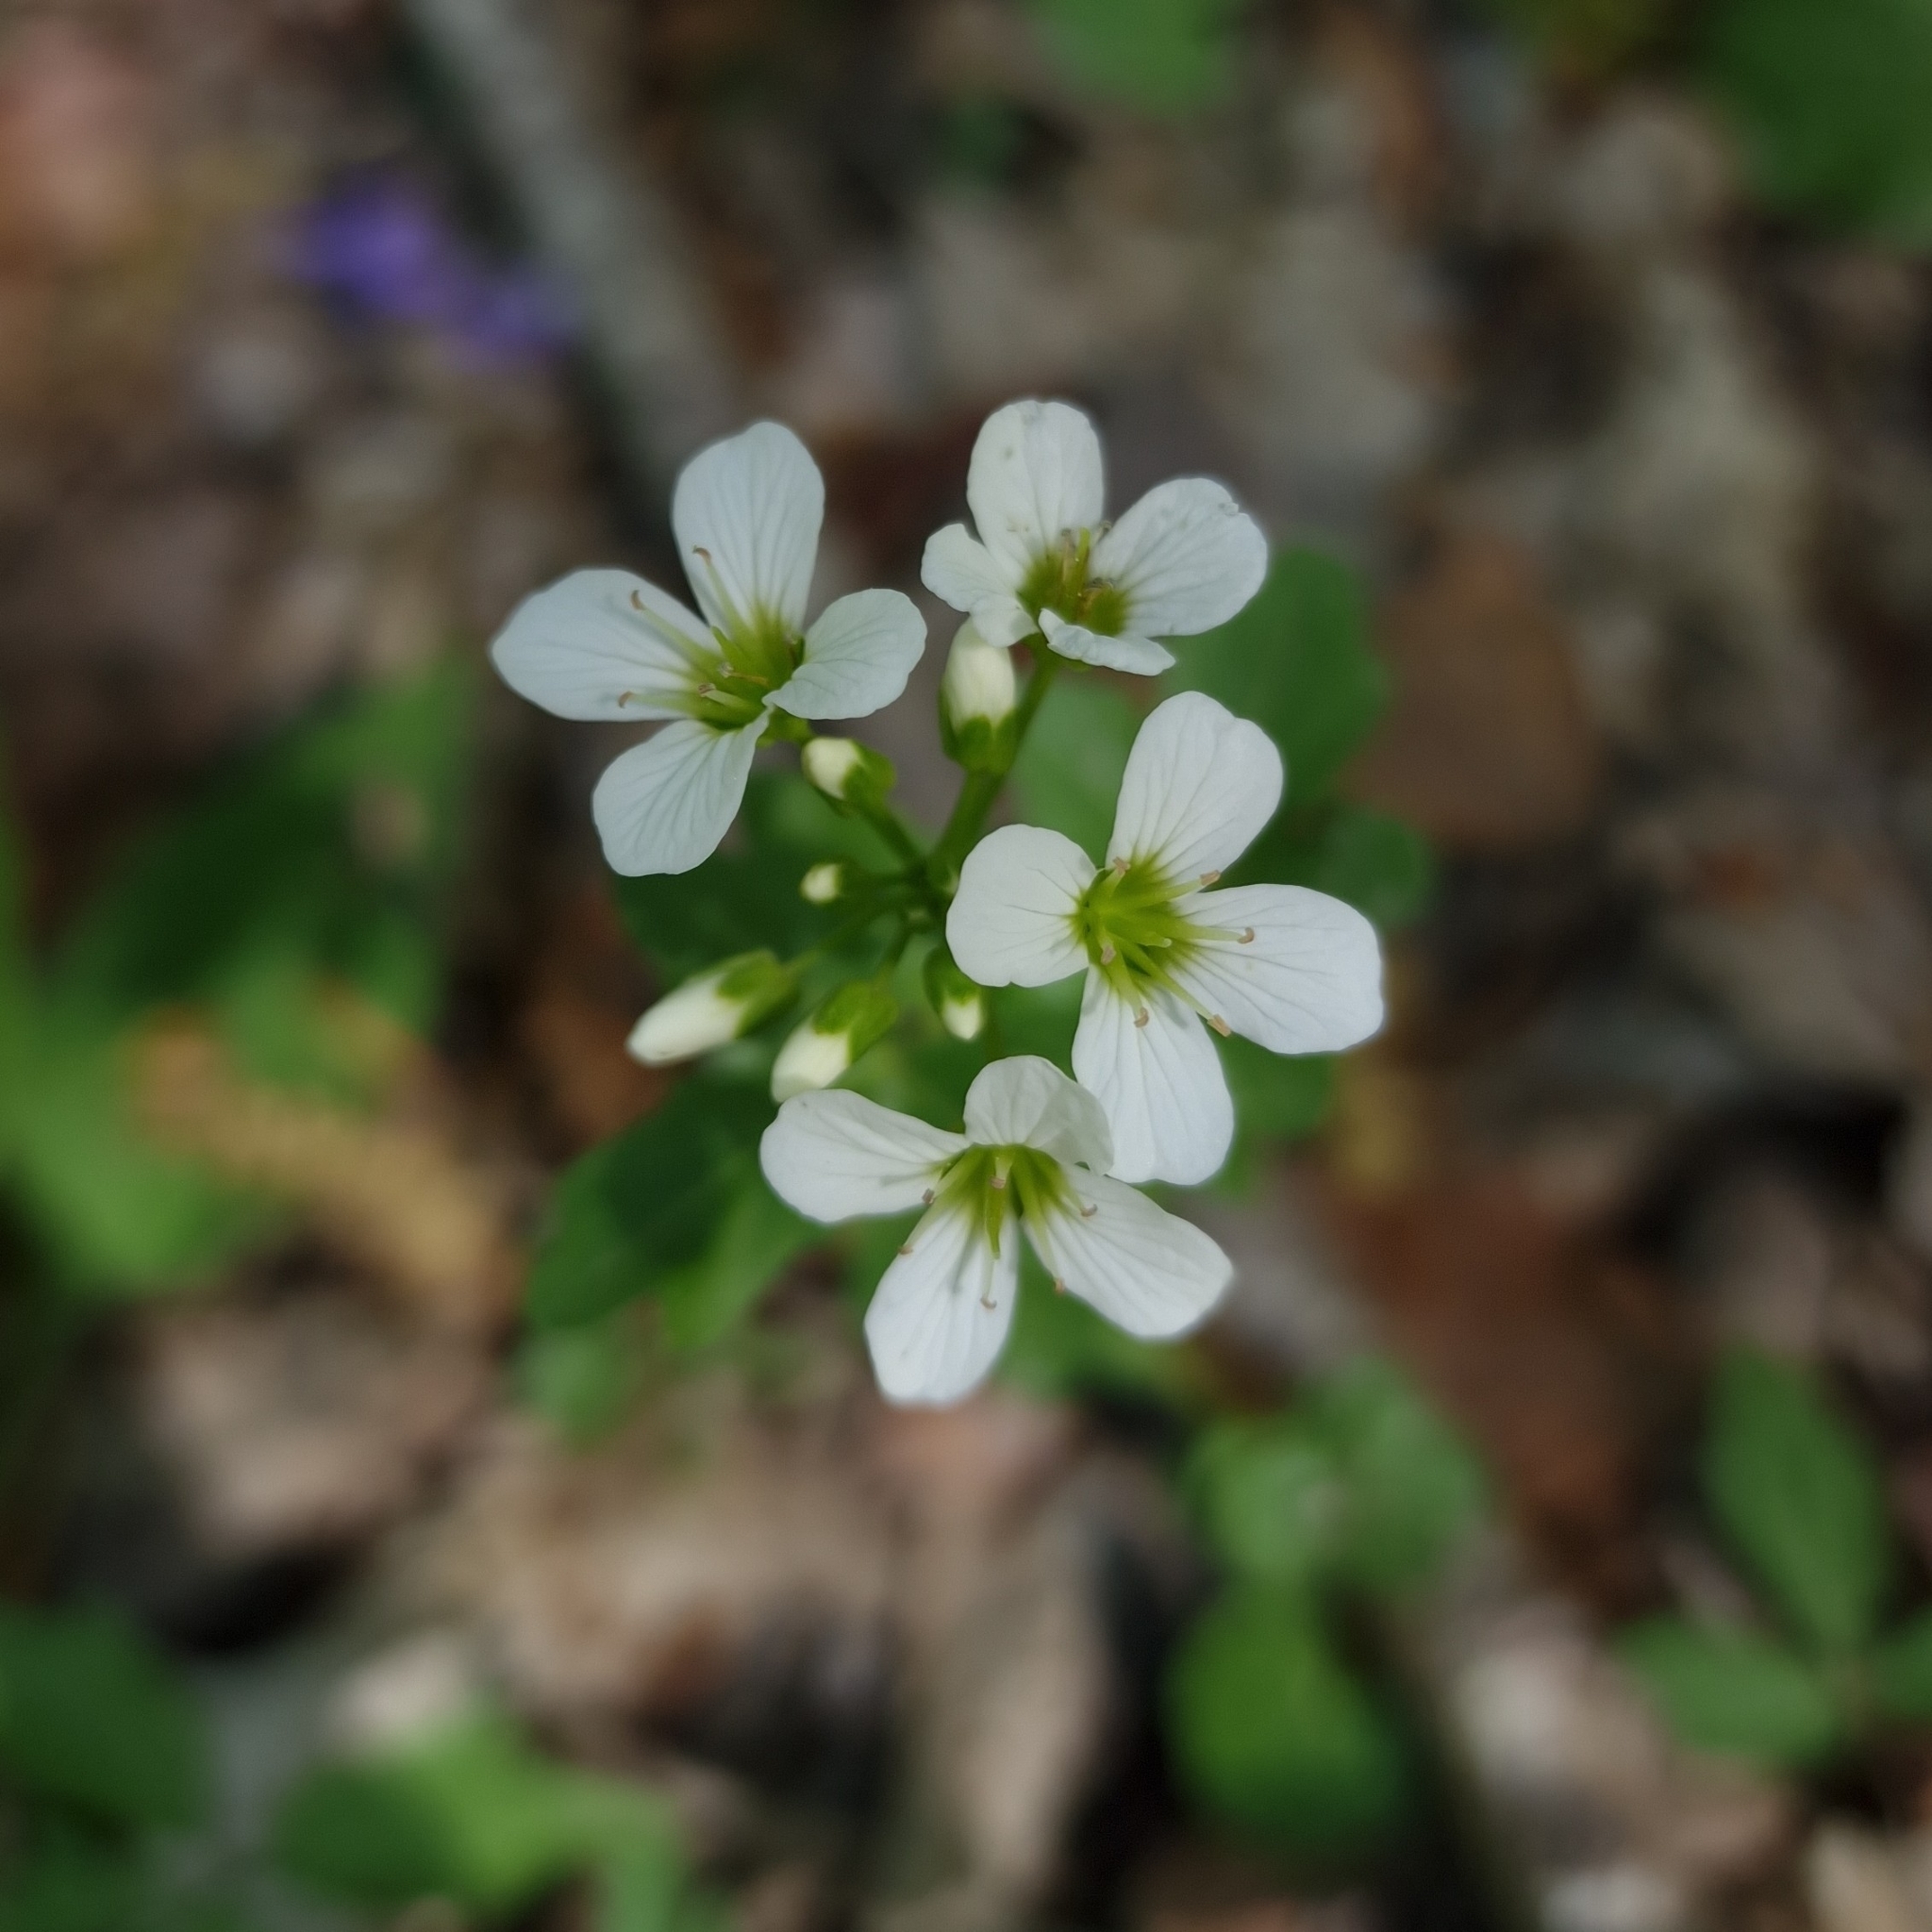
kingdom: Plantae
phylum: Tracheophyta
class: Magnoliopsida
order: Brassicales
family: Brassicaceae
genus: Cardamine
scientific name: Cardamine amara
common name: Large bitter-cress
